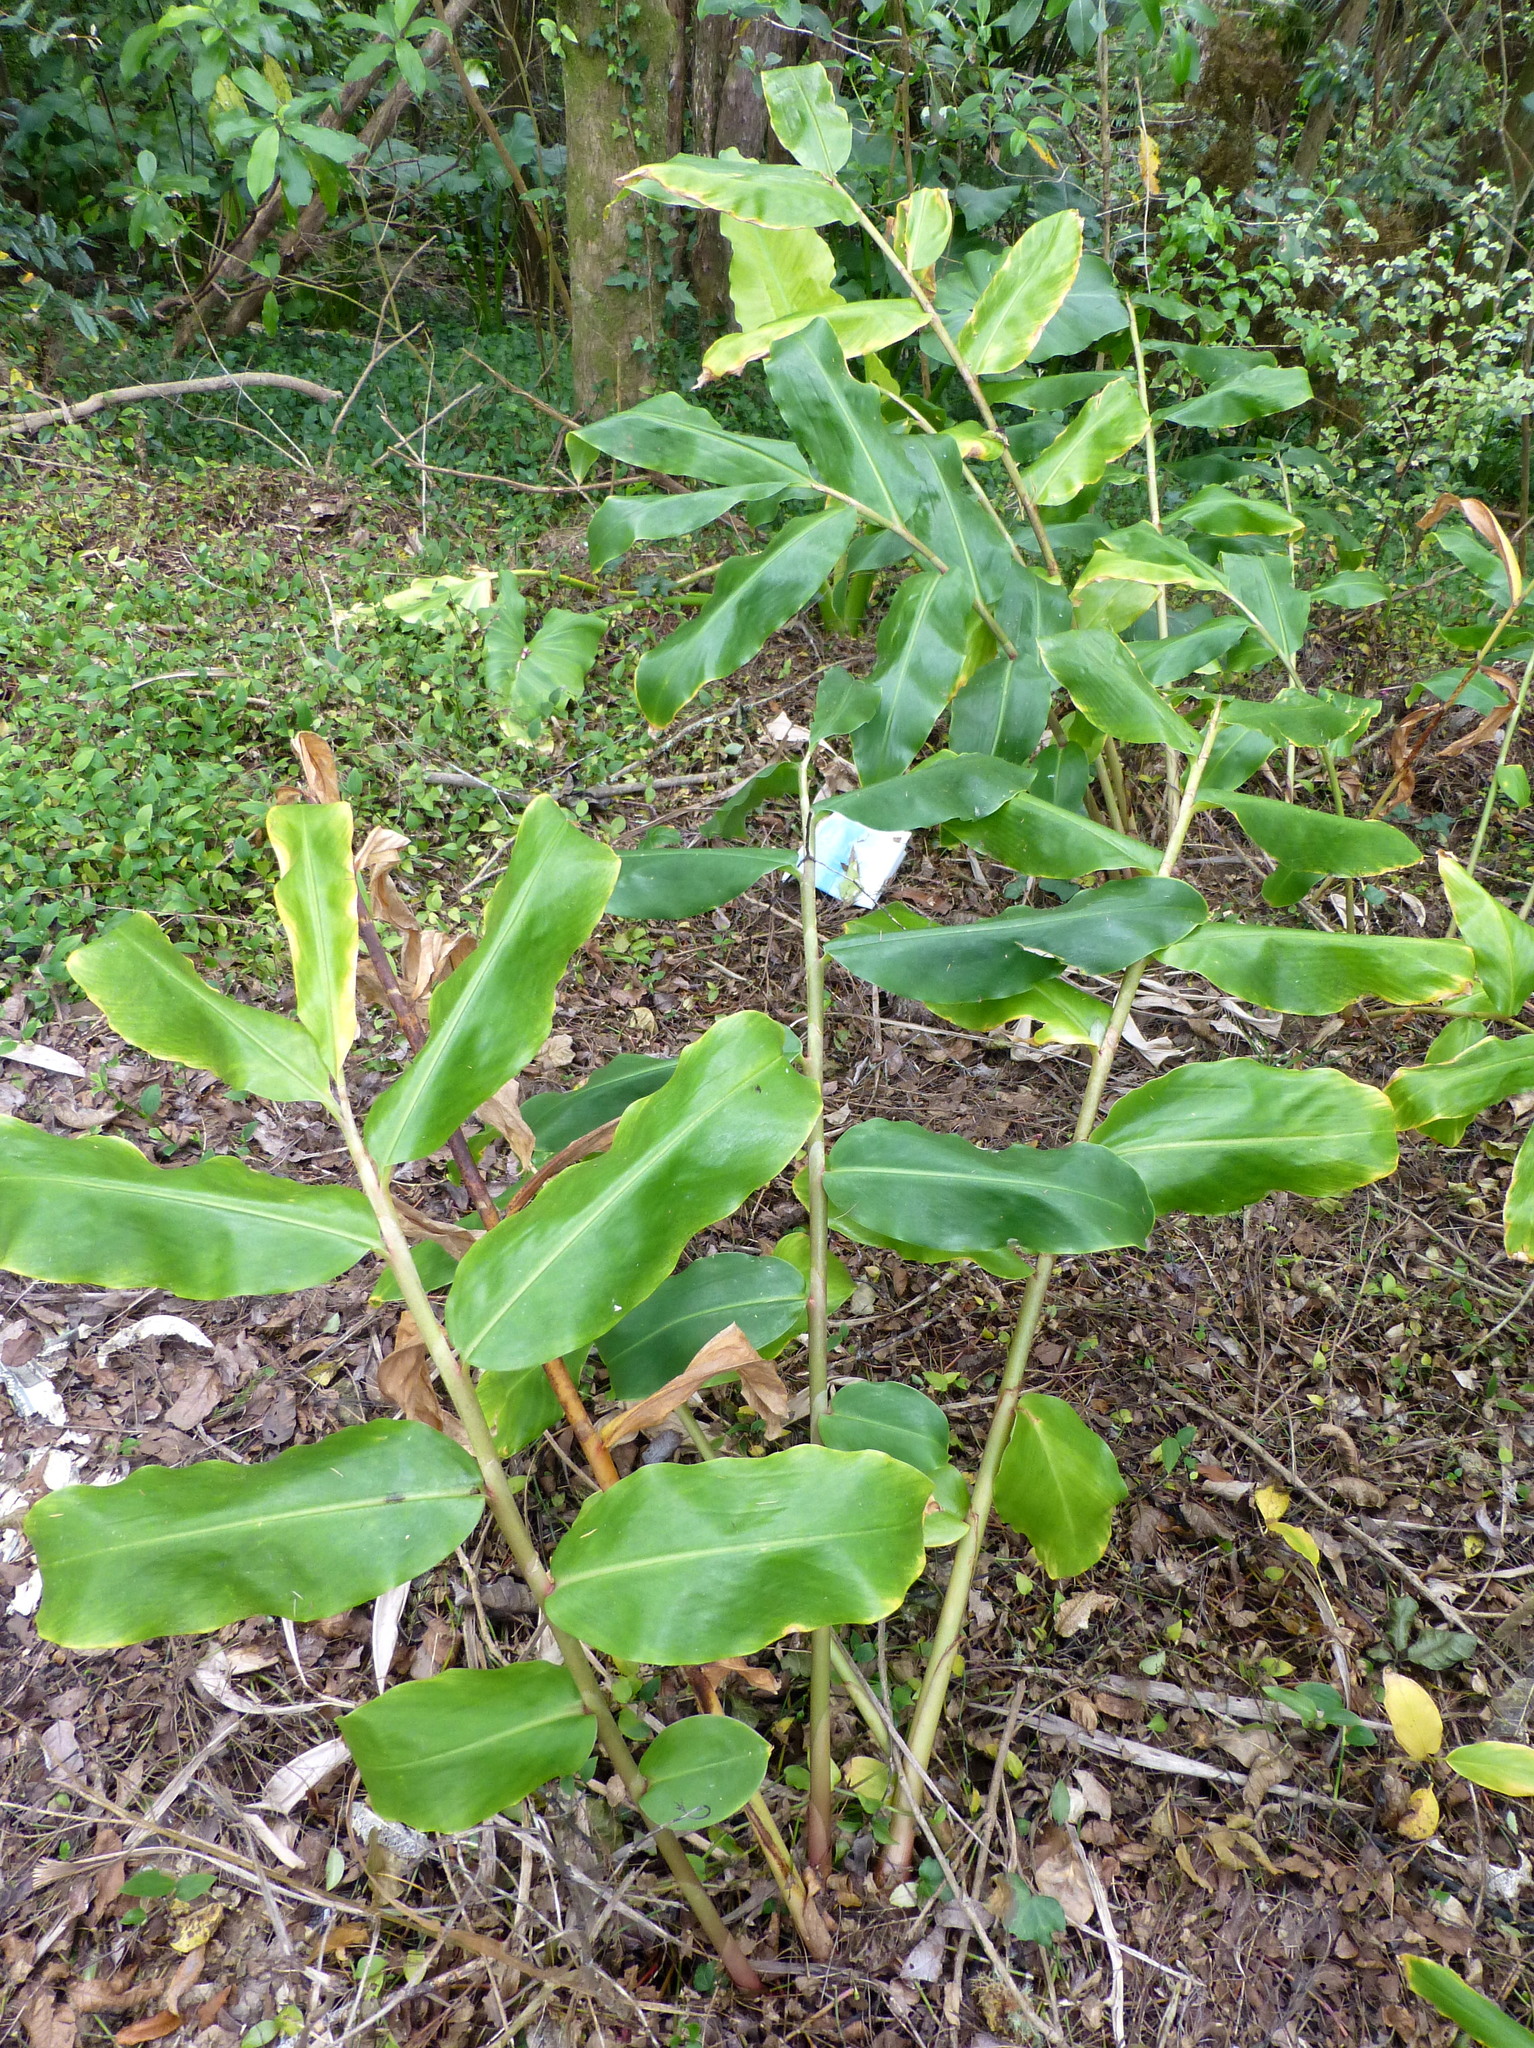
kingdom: Plantae
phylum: Tracheophyta
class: Liliopsida
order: Zingiberales
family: Zingiberaceae
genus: Hedychium
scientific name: Hedychium gardnerianum
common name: Himalayan ginger
